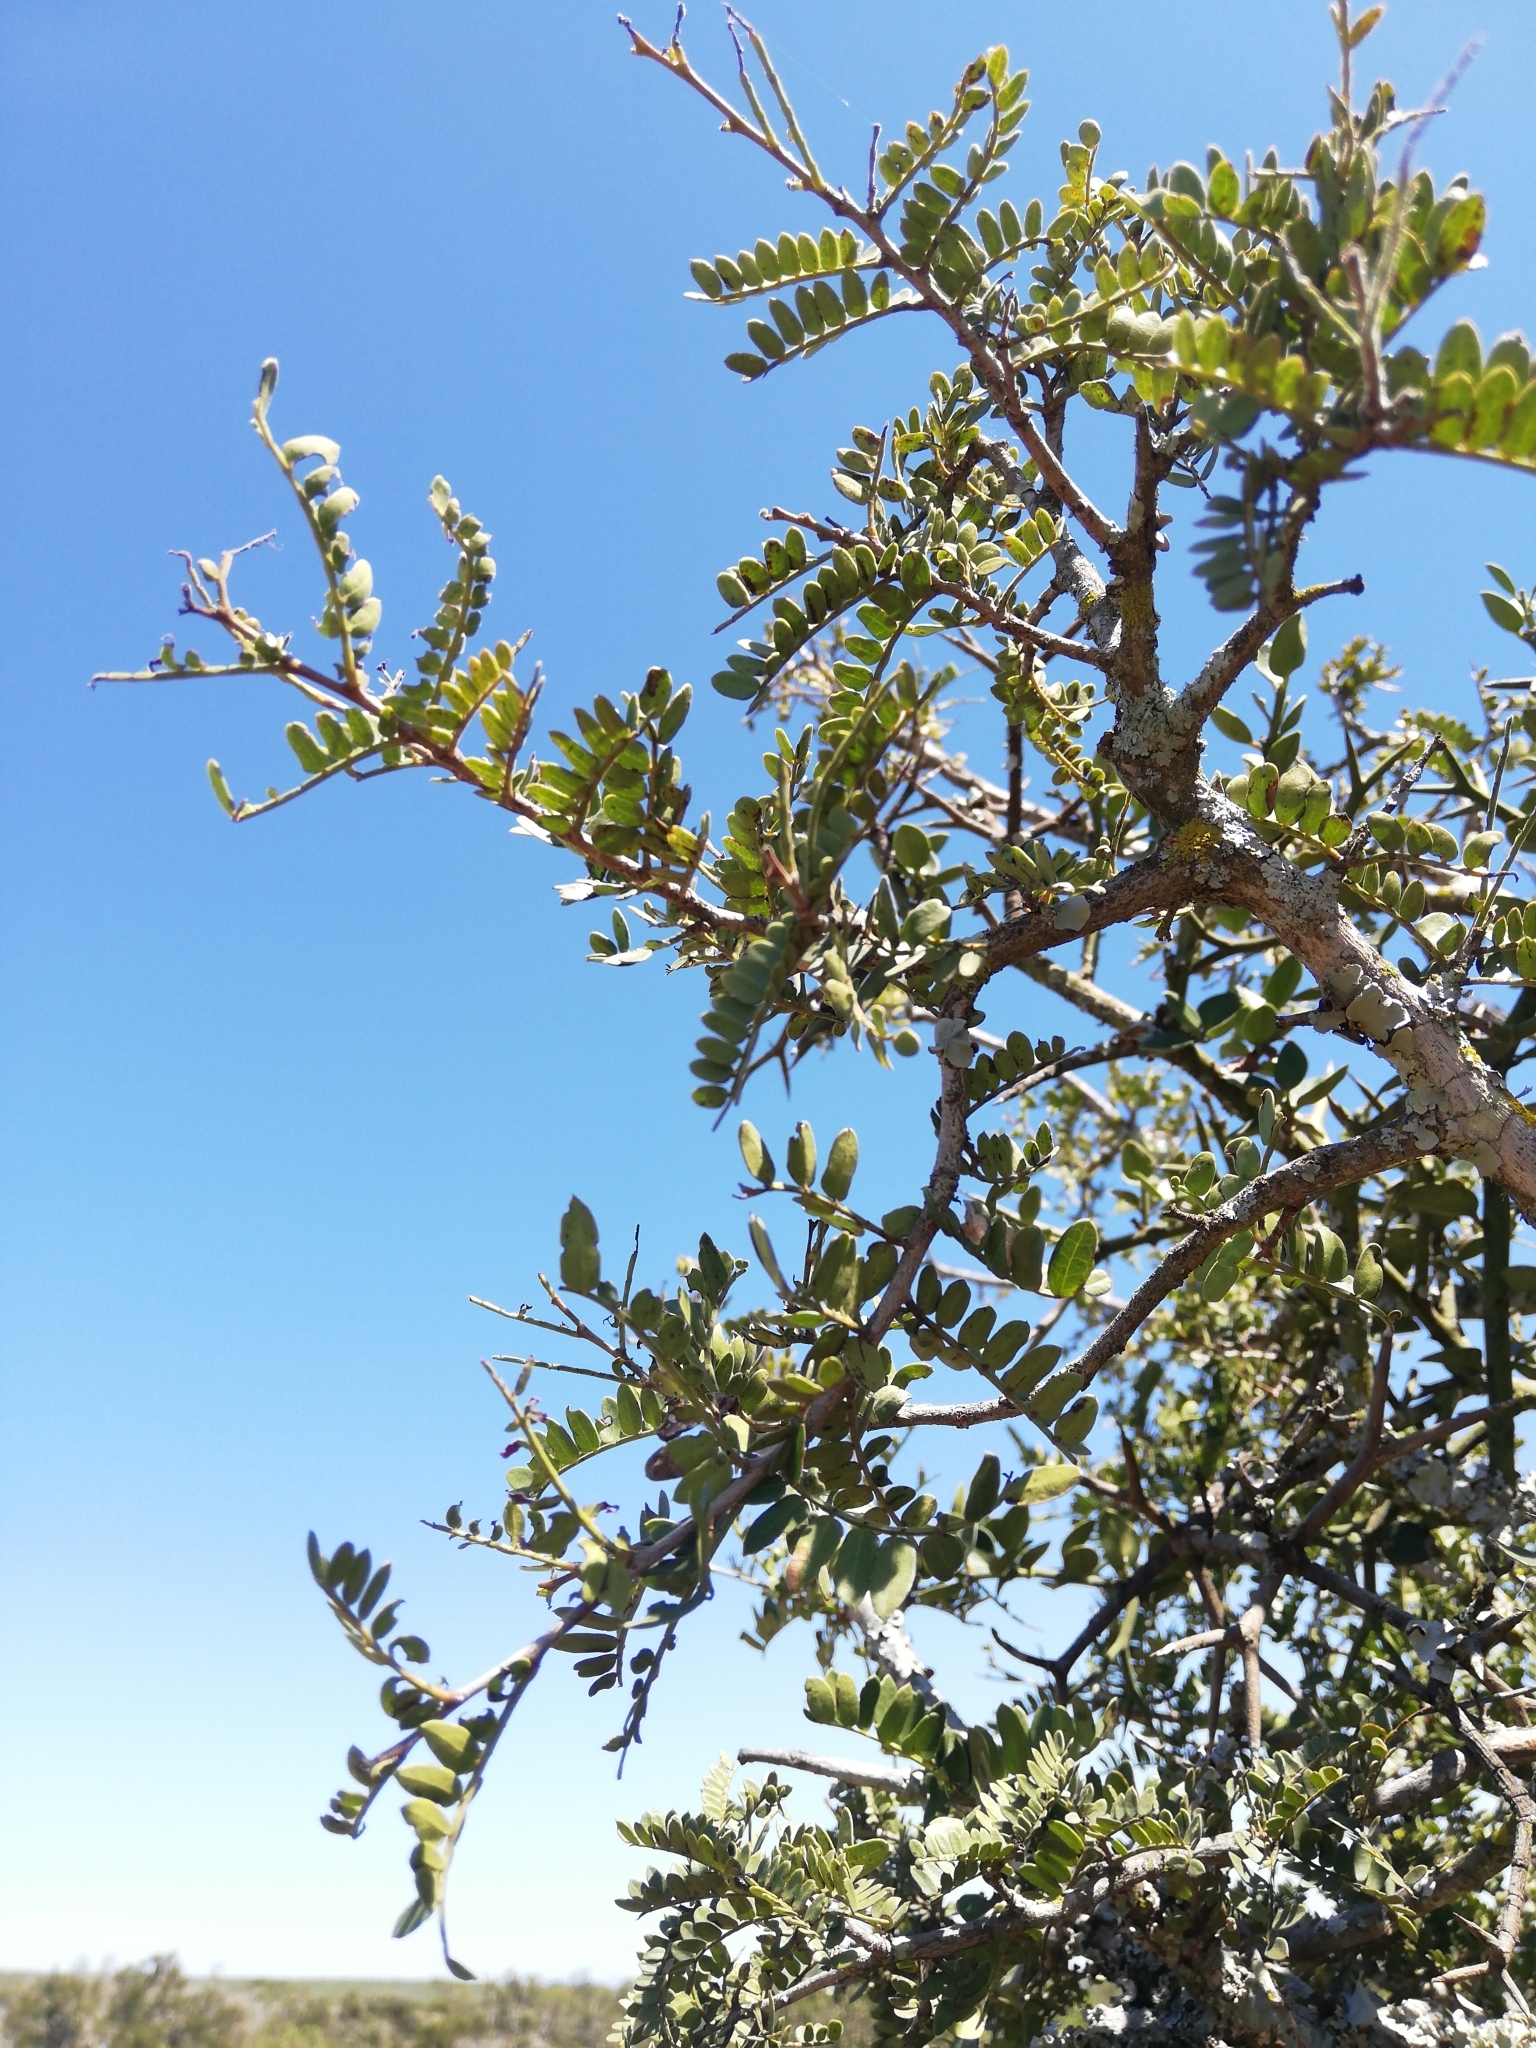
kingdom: Plantae
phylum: Tracheophyta
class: Magnoliopsida
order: Fabales
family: Fabaceae
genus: Schotia
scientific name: Schotia afra
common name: Hottentot's bean
